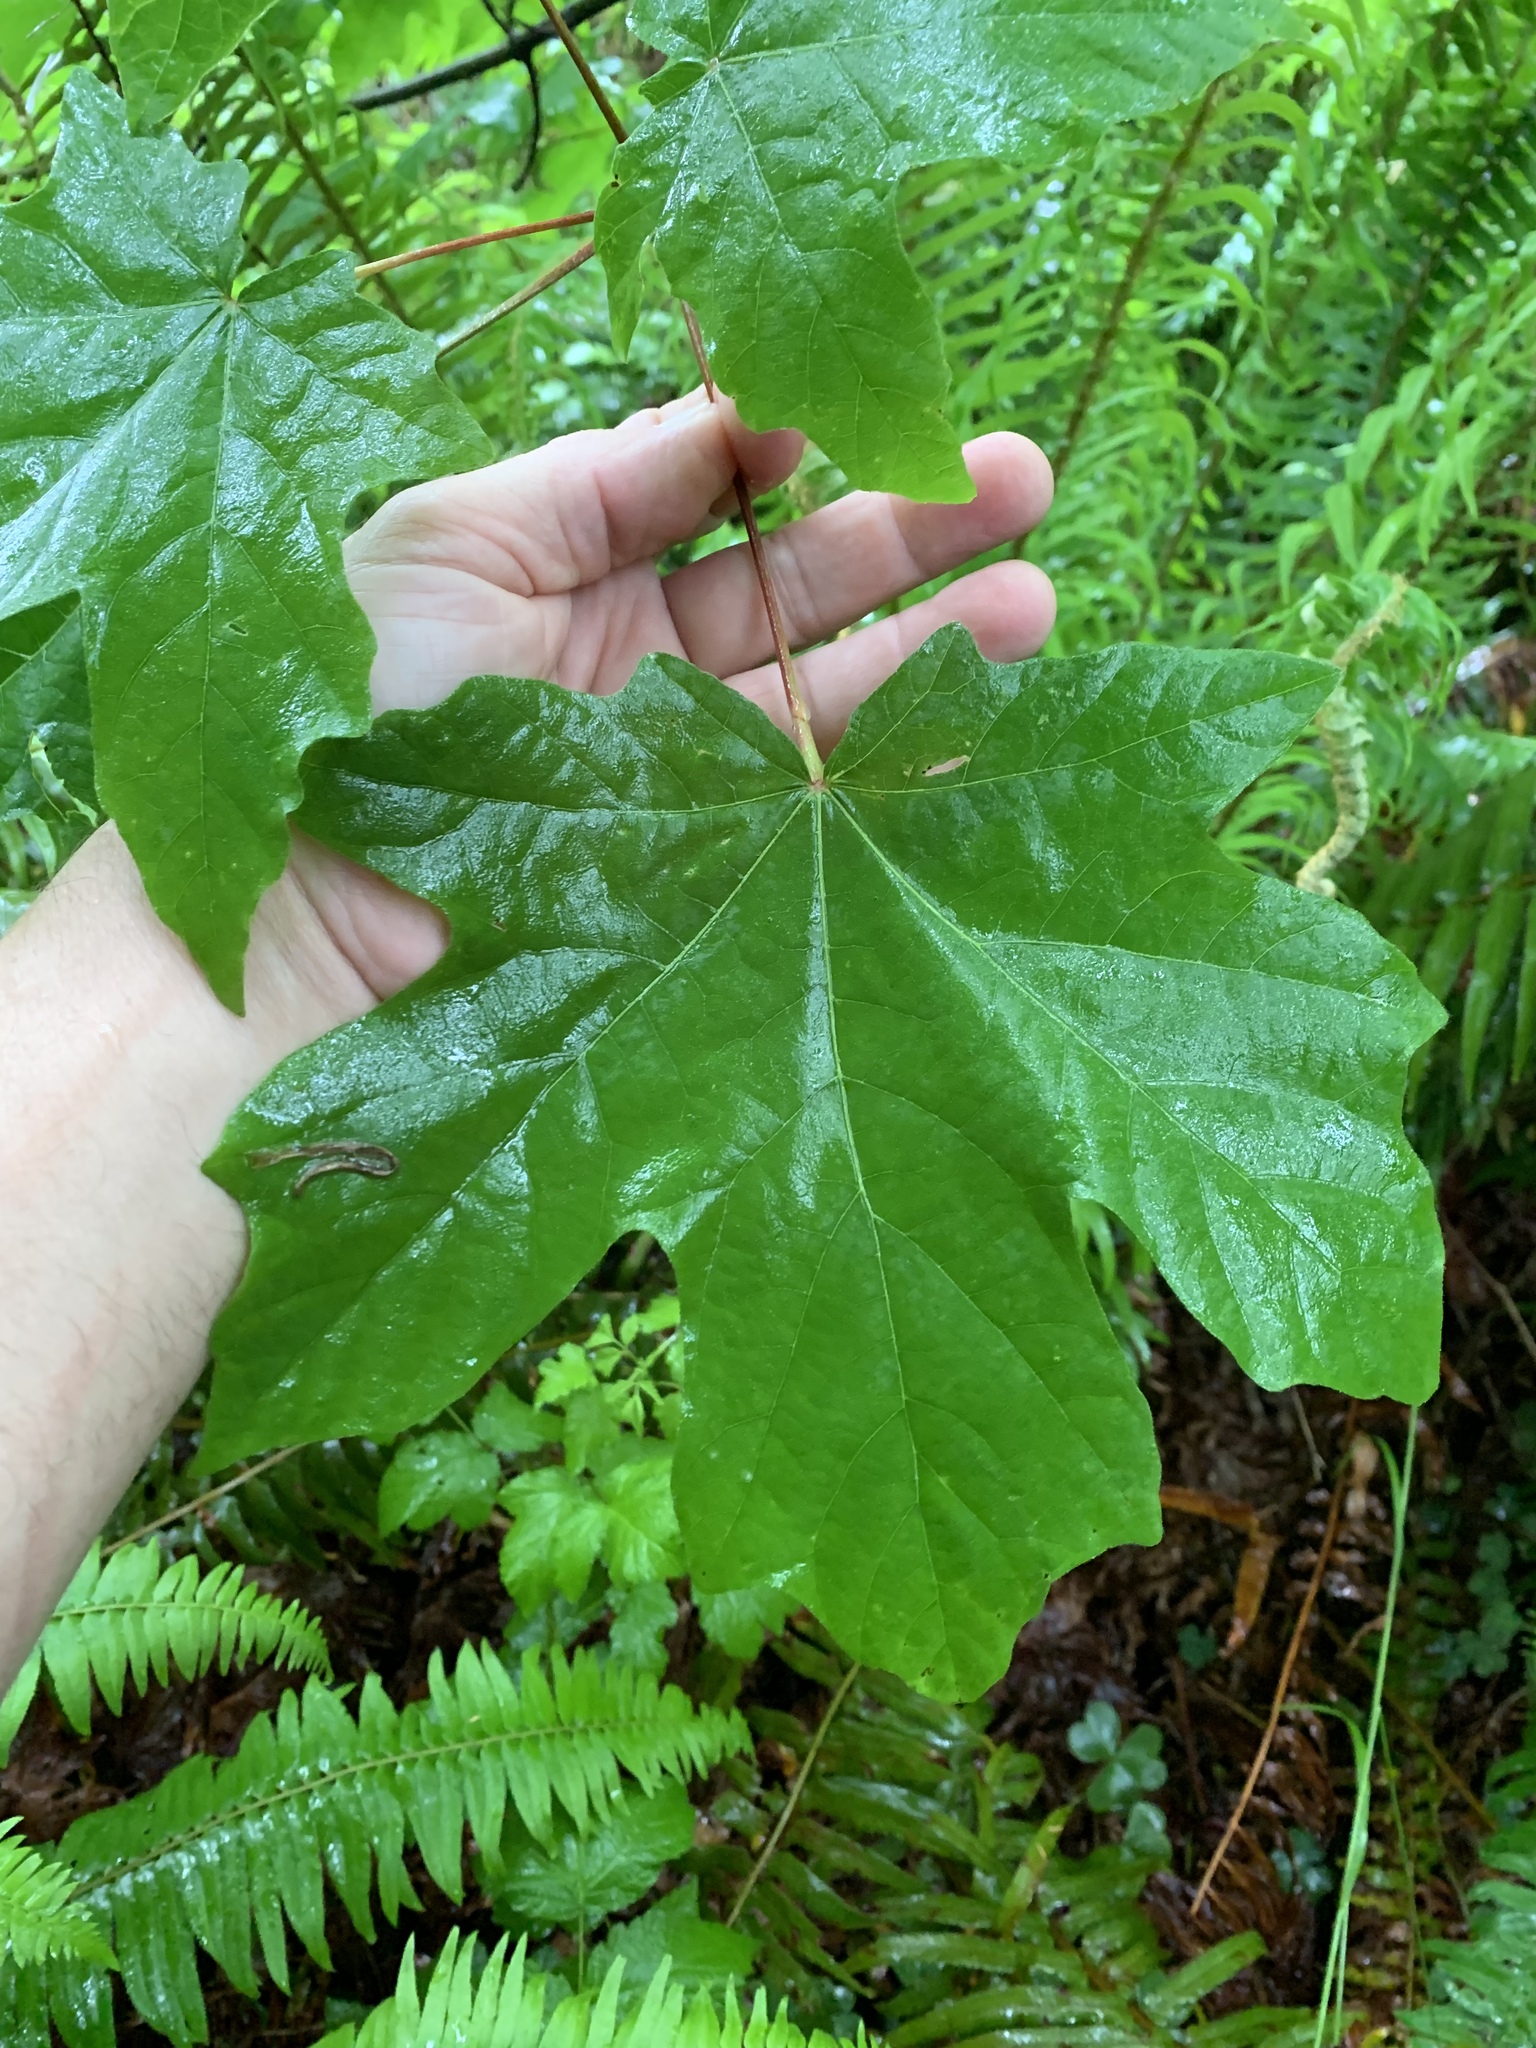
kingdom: Plantae
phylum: Tracheophyta
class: Magnoliopsida
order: Sapindales
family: Sapindaceae
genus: Acer
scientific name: Acer macrophyllum
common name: Oregon maple
